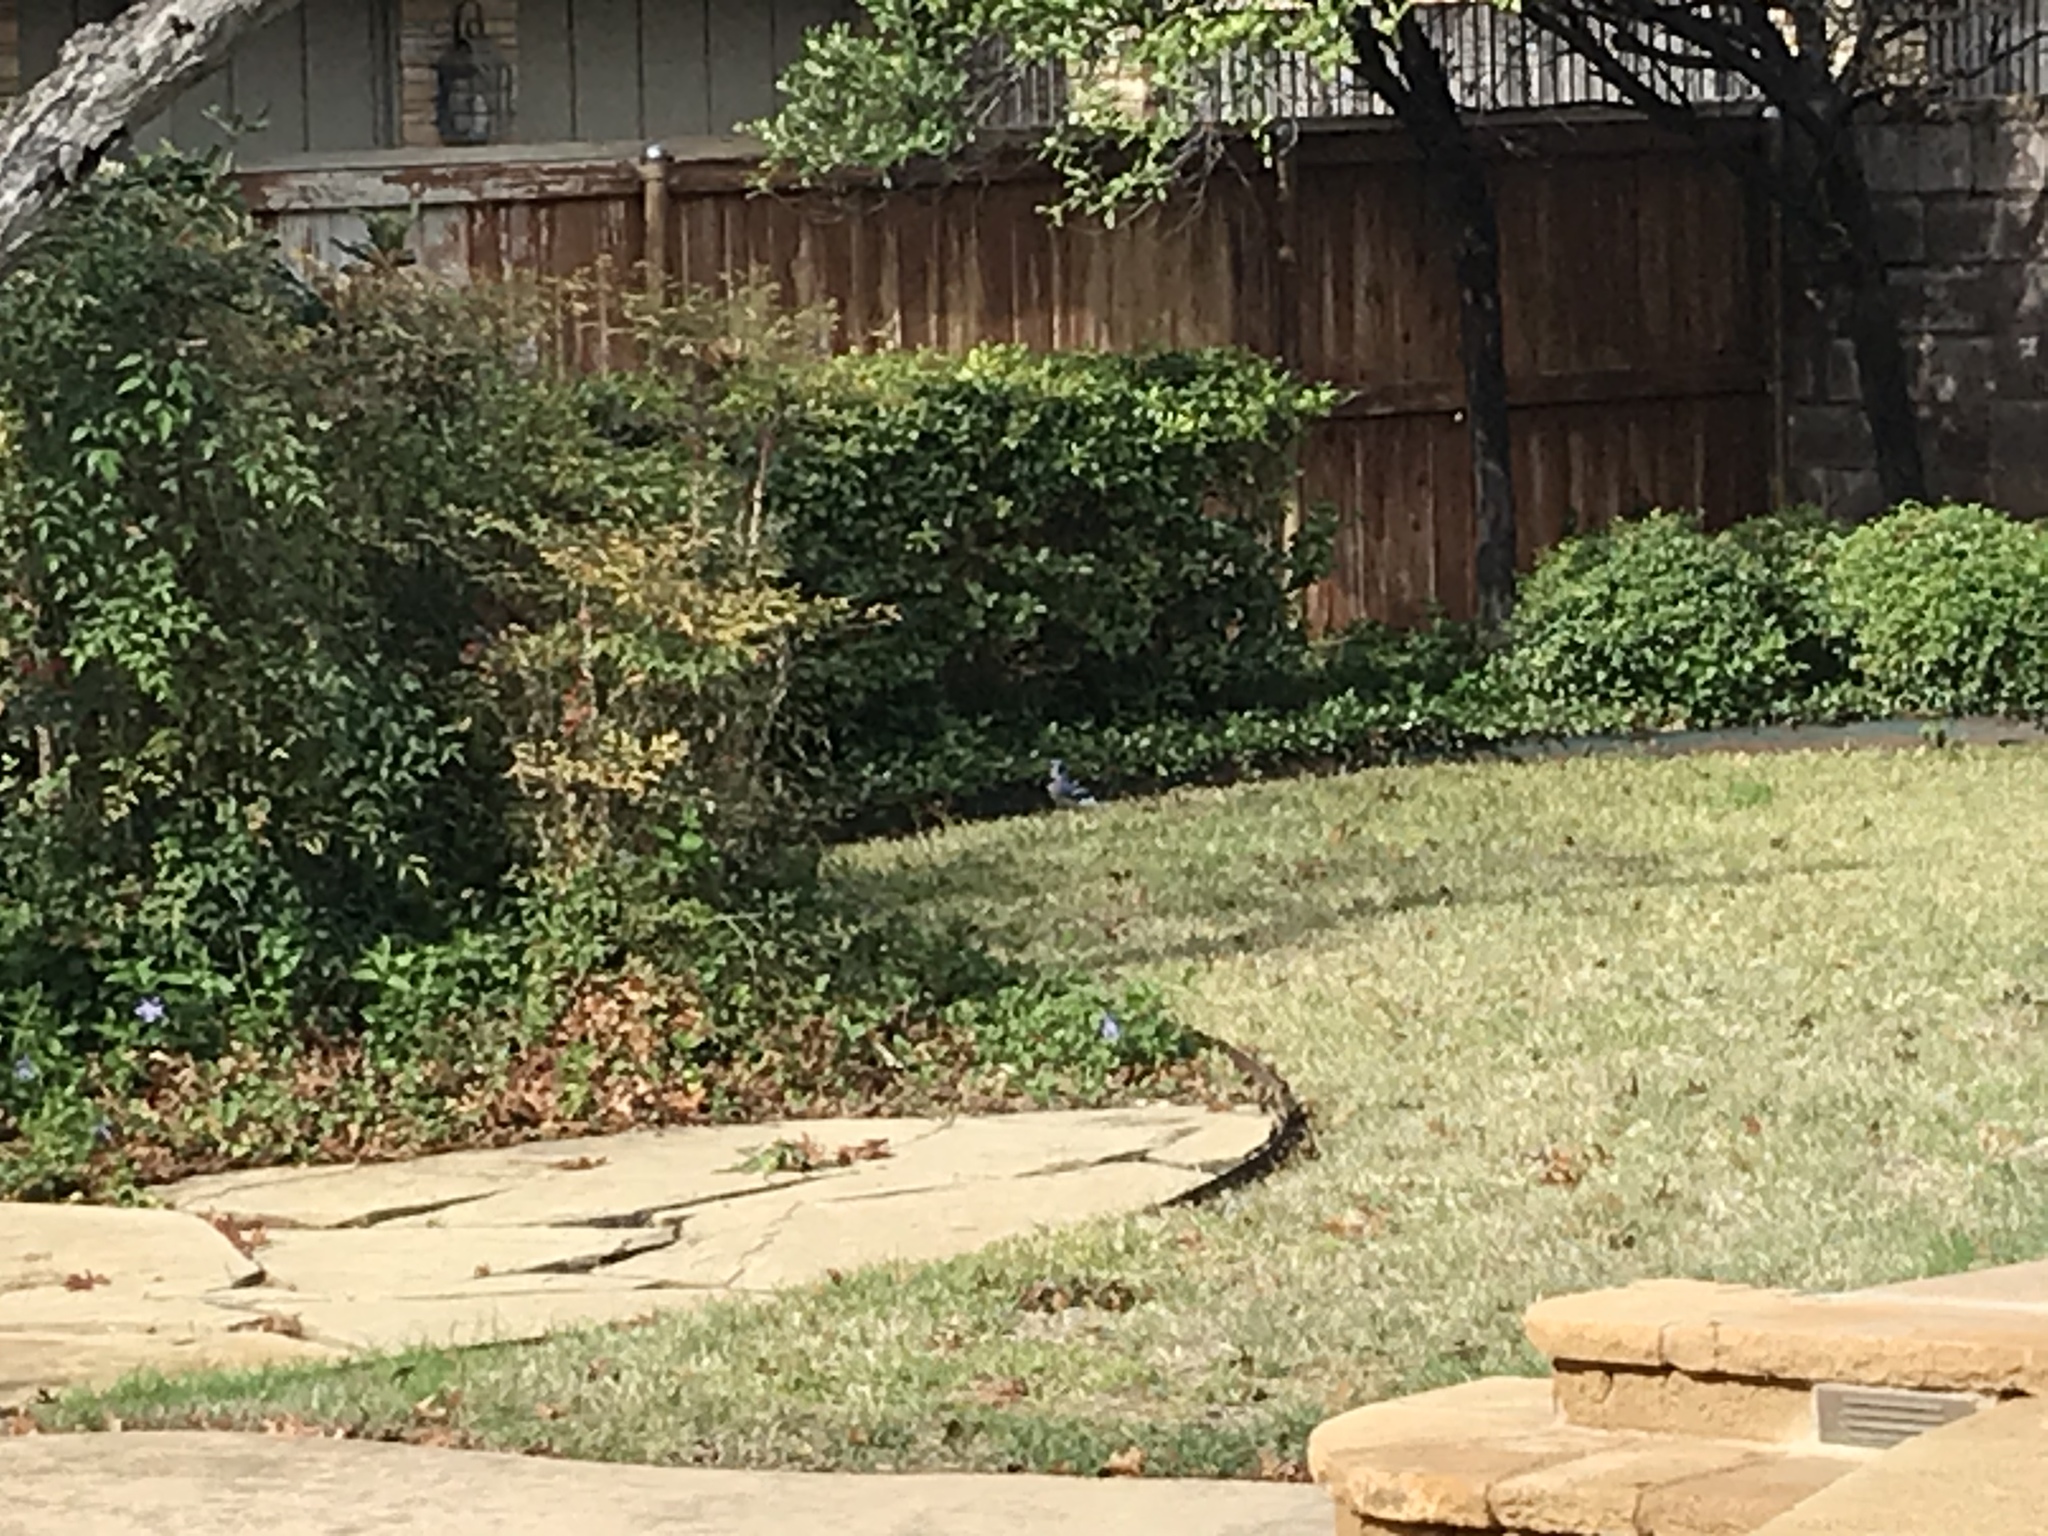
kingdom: Animalia
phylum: Chordata
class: Aves
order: Passeriformes
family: Corvidae
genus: Cyanocitta
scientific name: Cyanocitta cristata
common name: Blue jay
